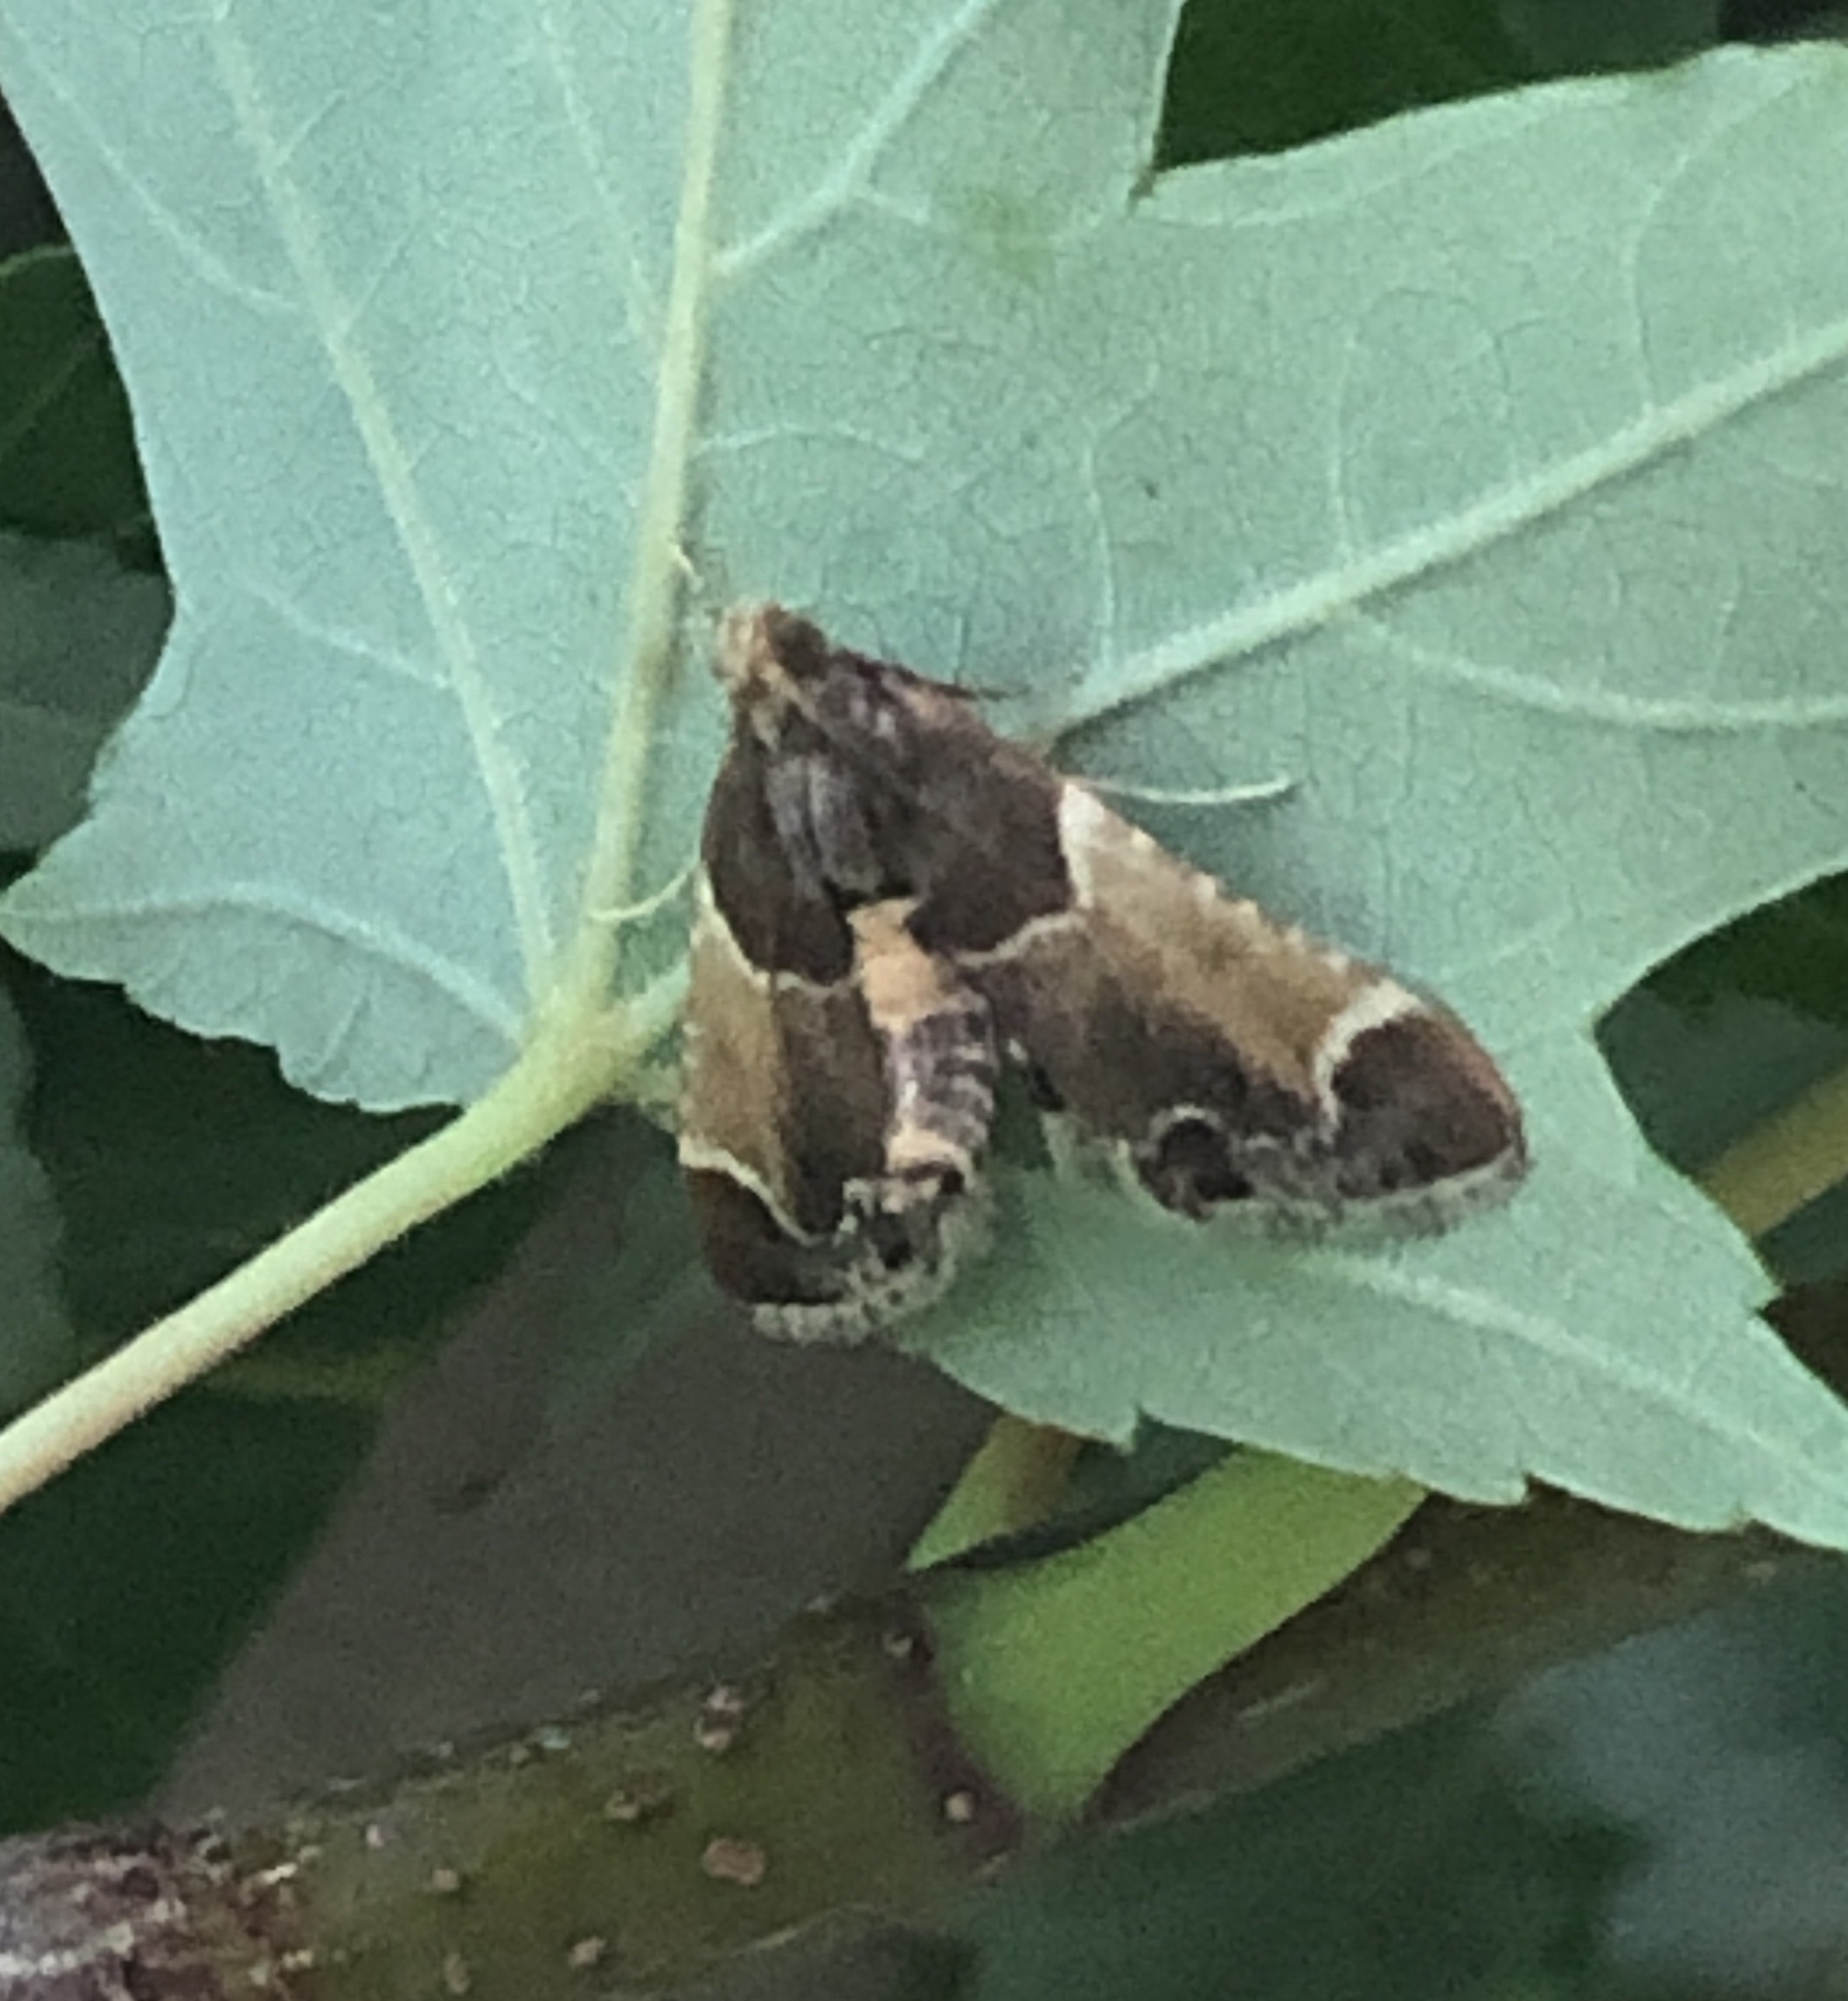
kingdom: Animalia
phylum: Arthropoda
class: Insecta
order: Lepidoptera
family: Pyralidae
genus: Pyralis
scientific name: Pyralis farinalis
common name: Meal moth
